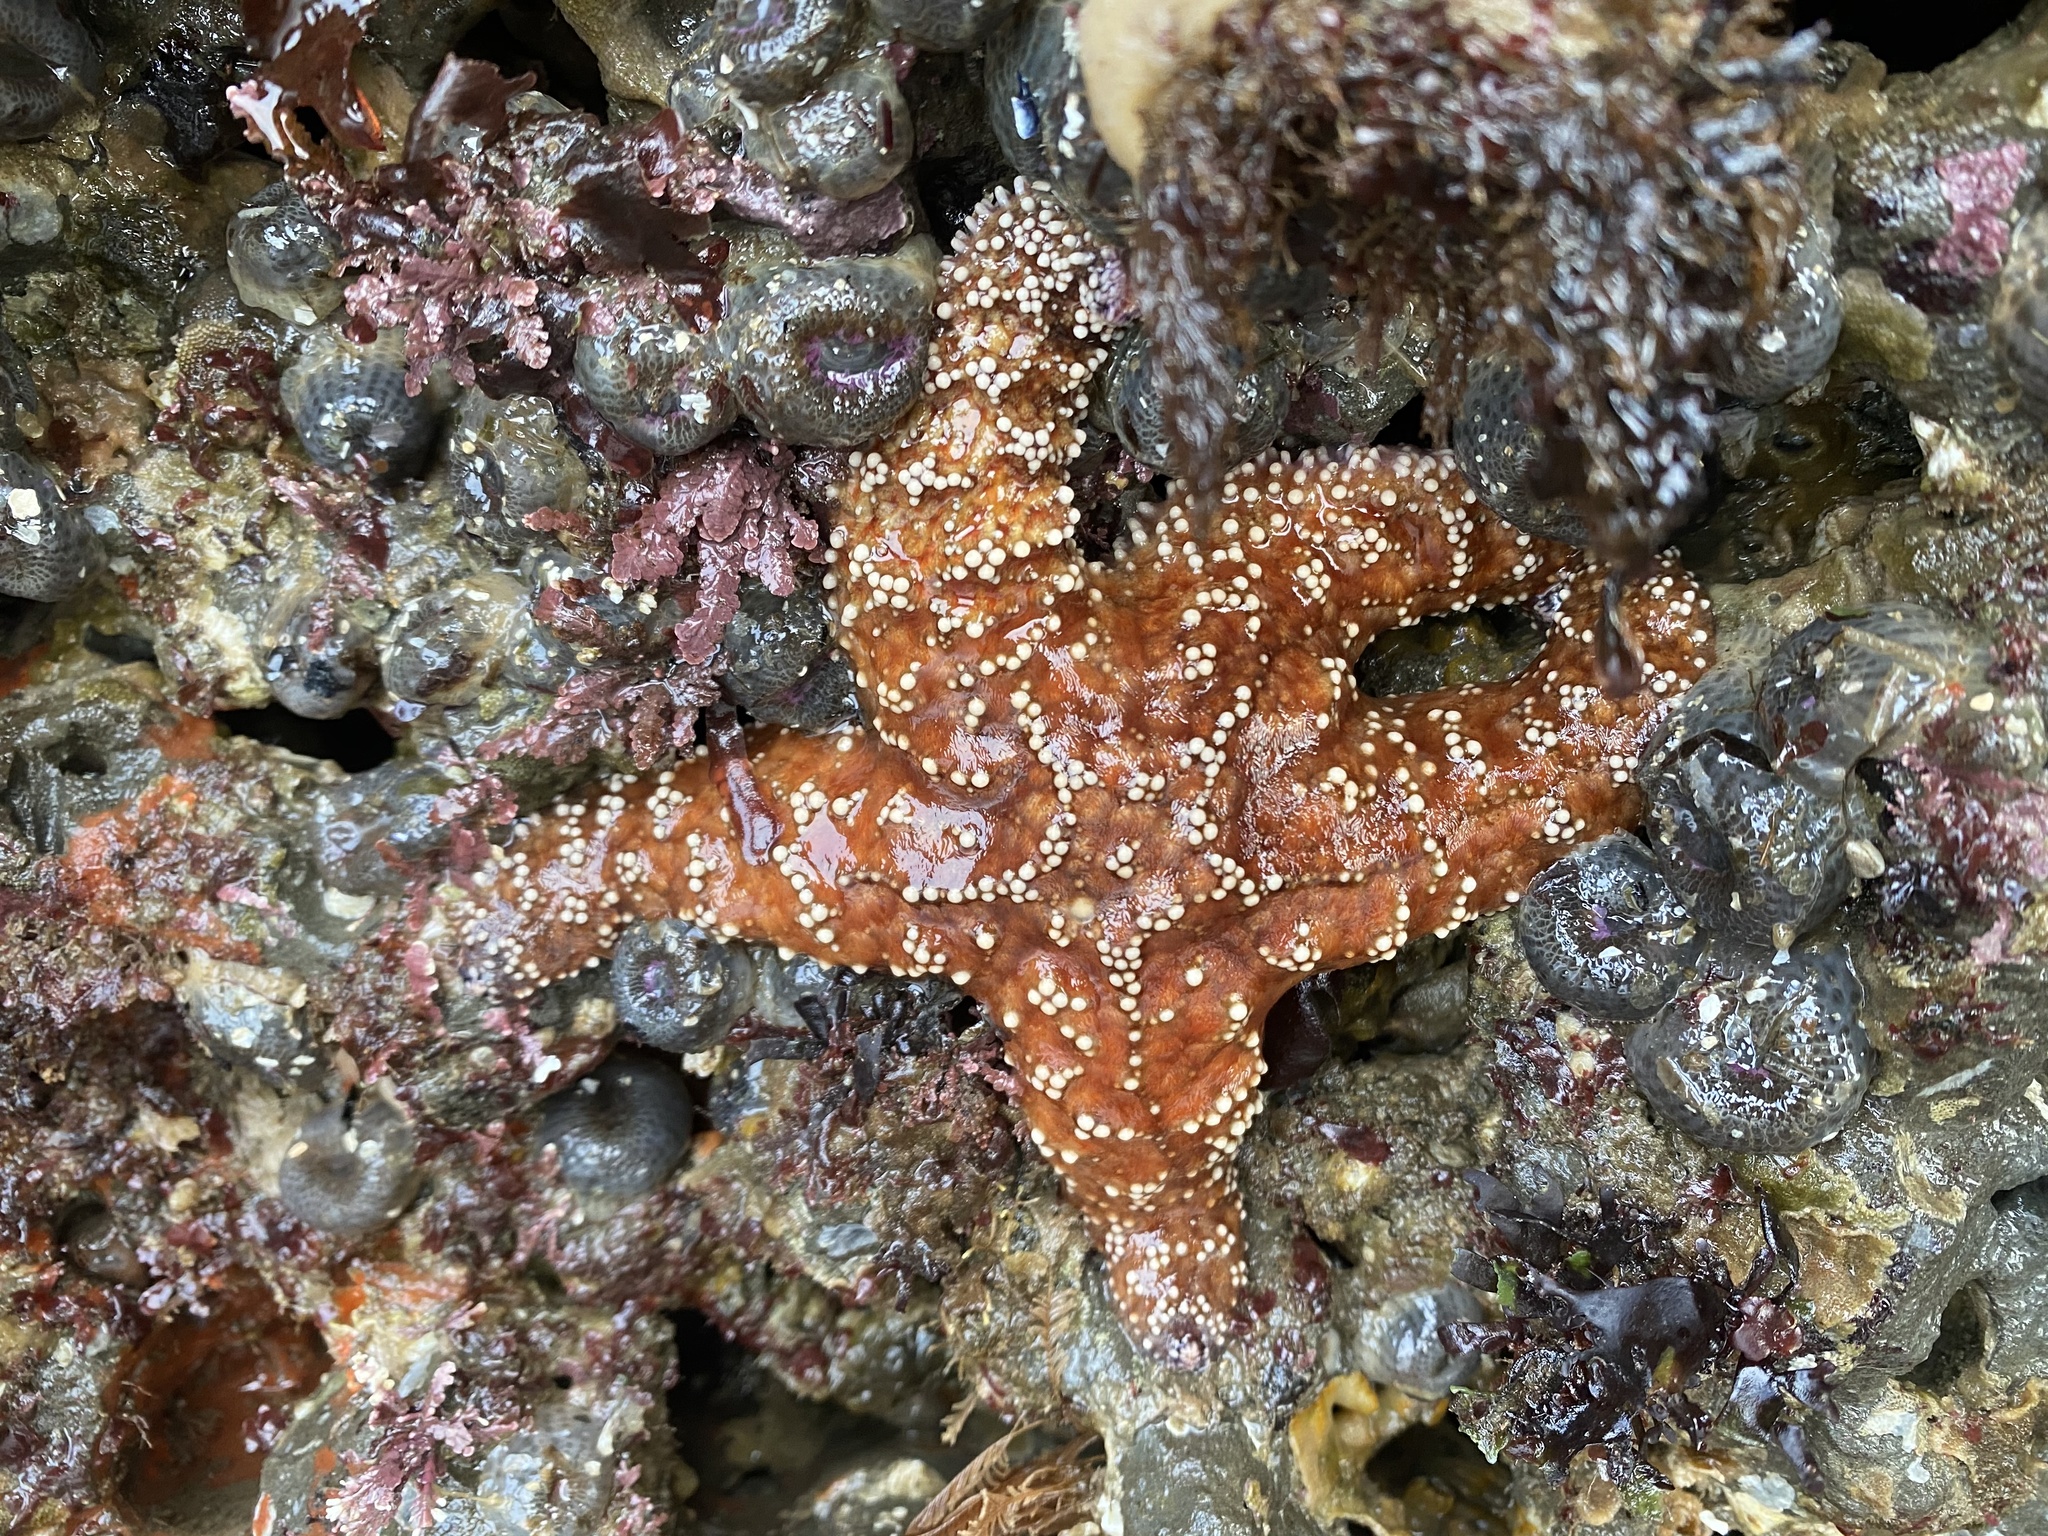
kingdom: Animalia
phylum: Echinodermata
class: Asteroidea
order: Forcipulatida
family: Asteriidae
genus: Pisaster
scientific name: Pisaster ochraceus
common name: Ochre stars
